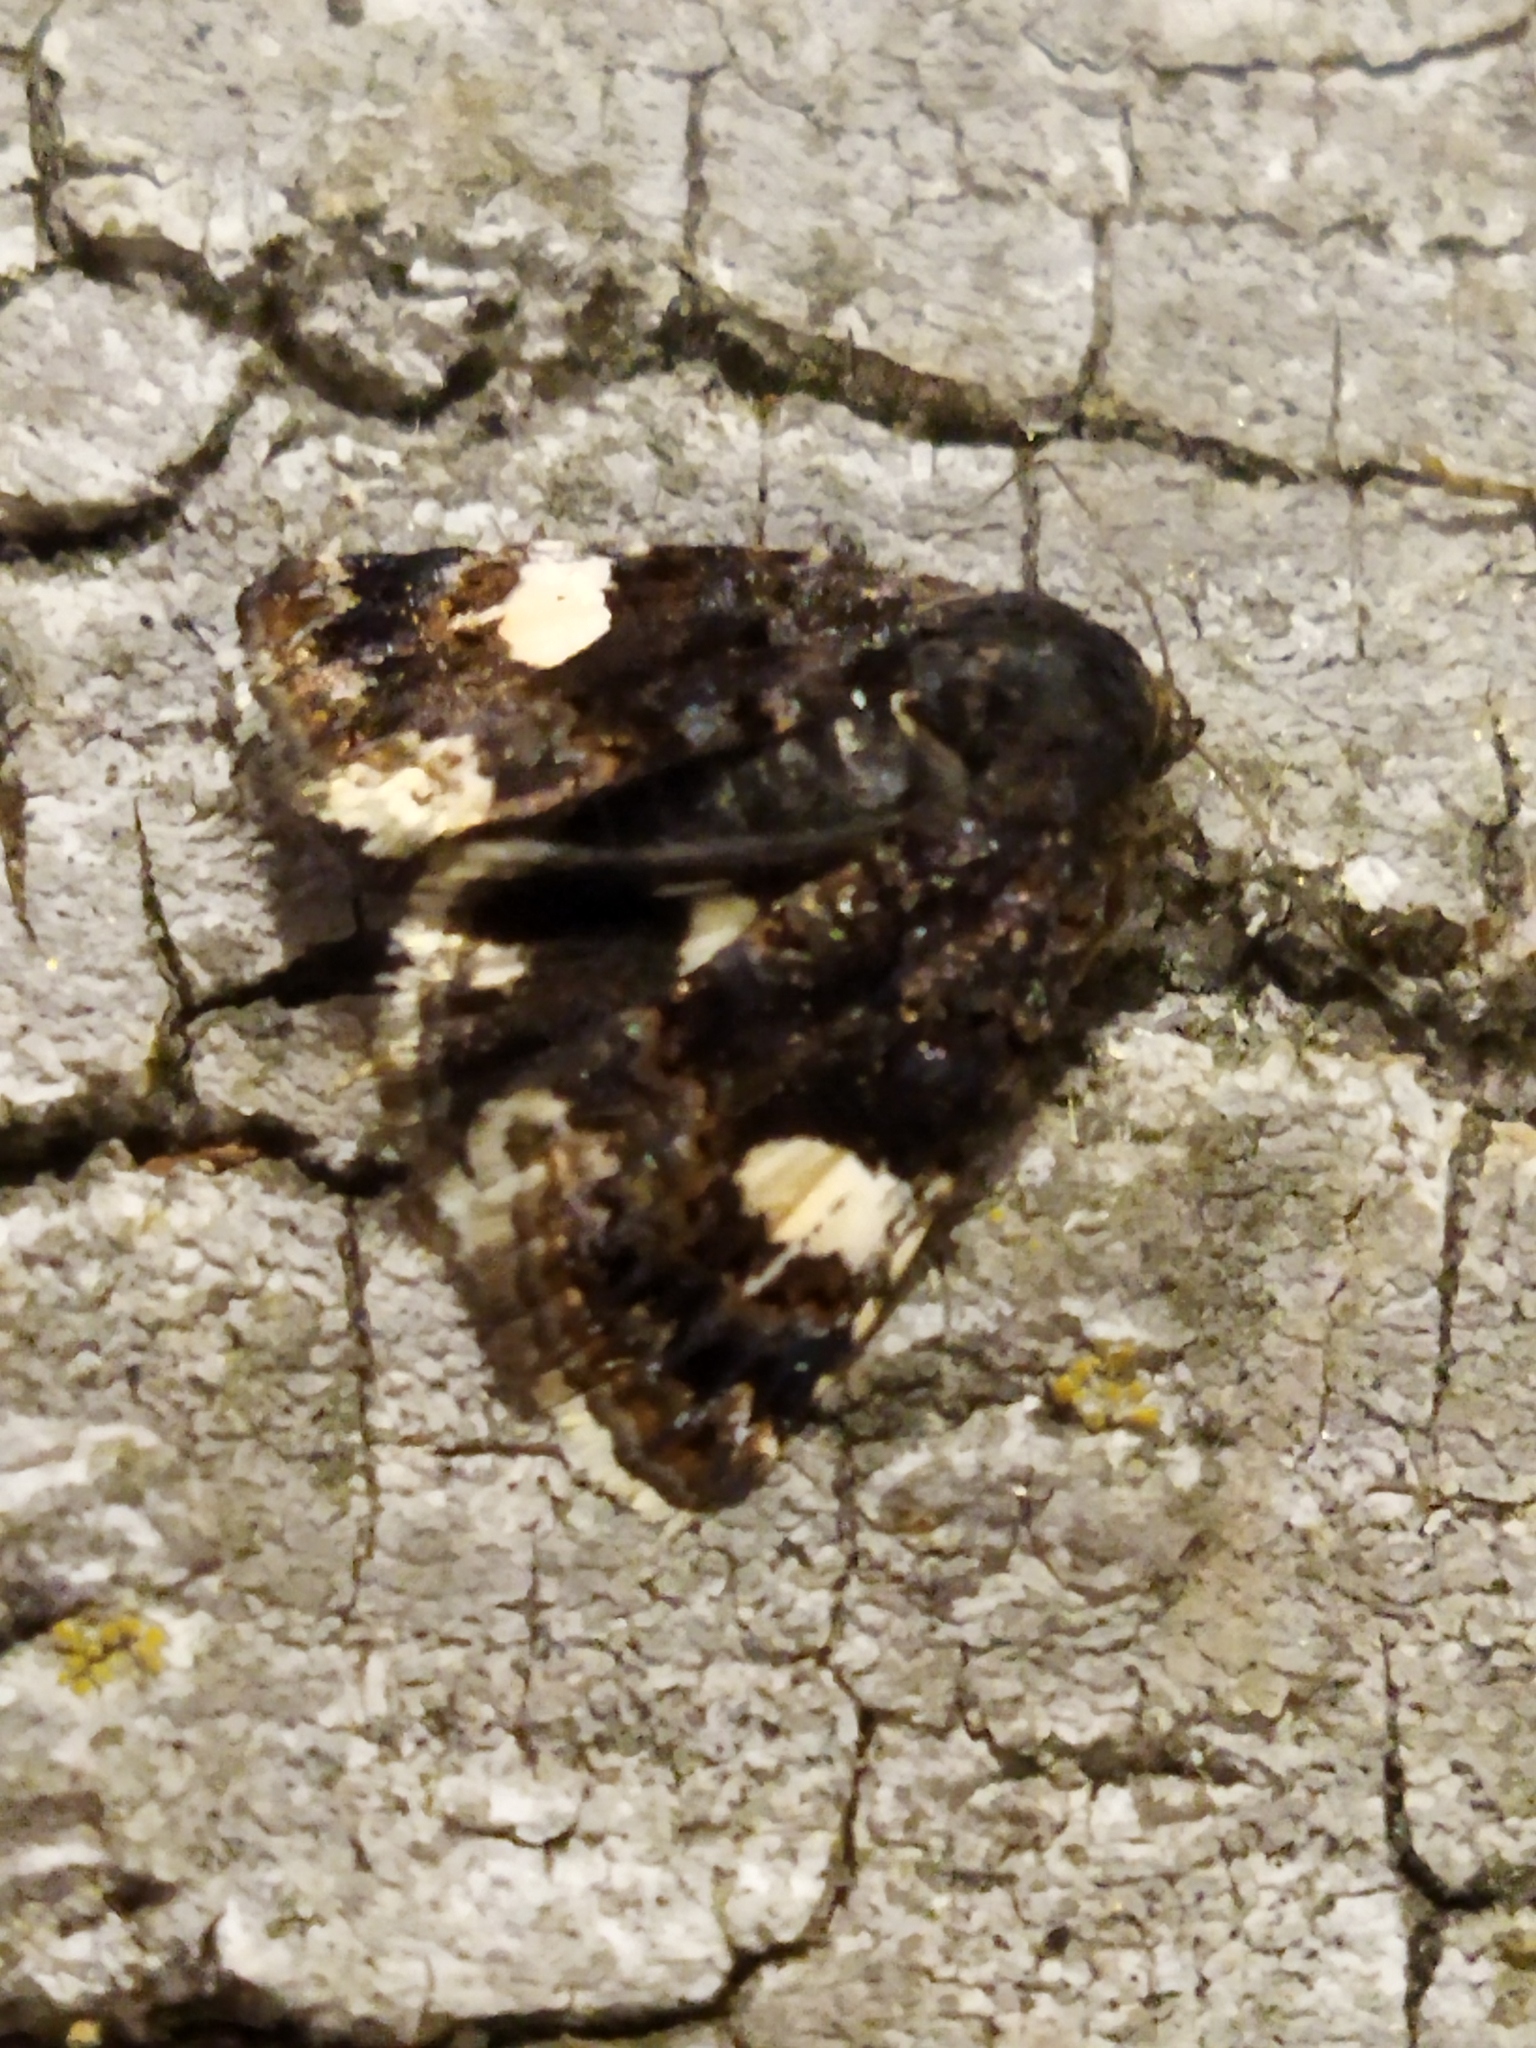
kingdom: Animalia
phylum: Arthropoda
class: Insecta
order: Lepidoptera
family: Erebidae
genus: Tyta
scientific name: Tyta luctuosa
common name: Four-spotted
